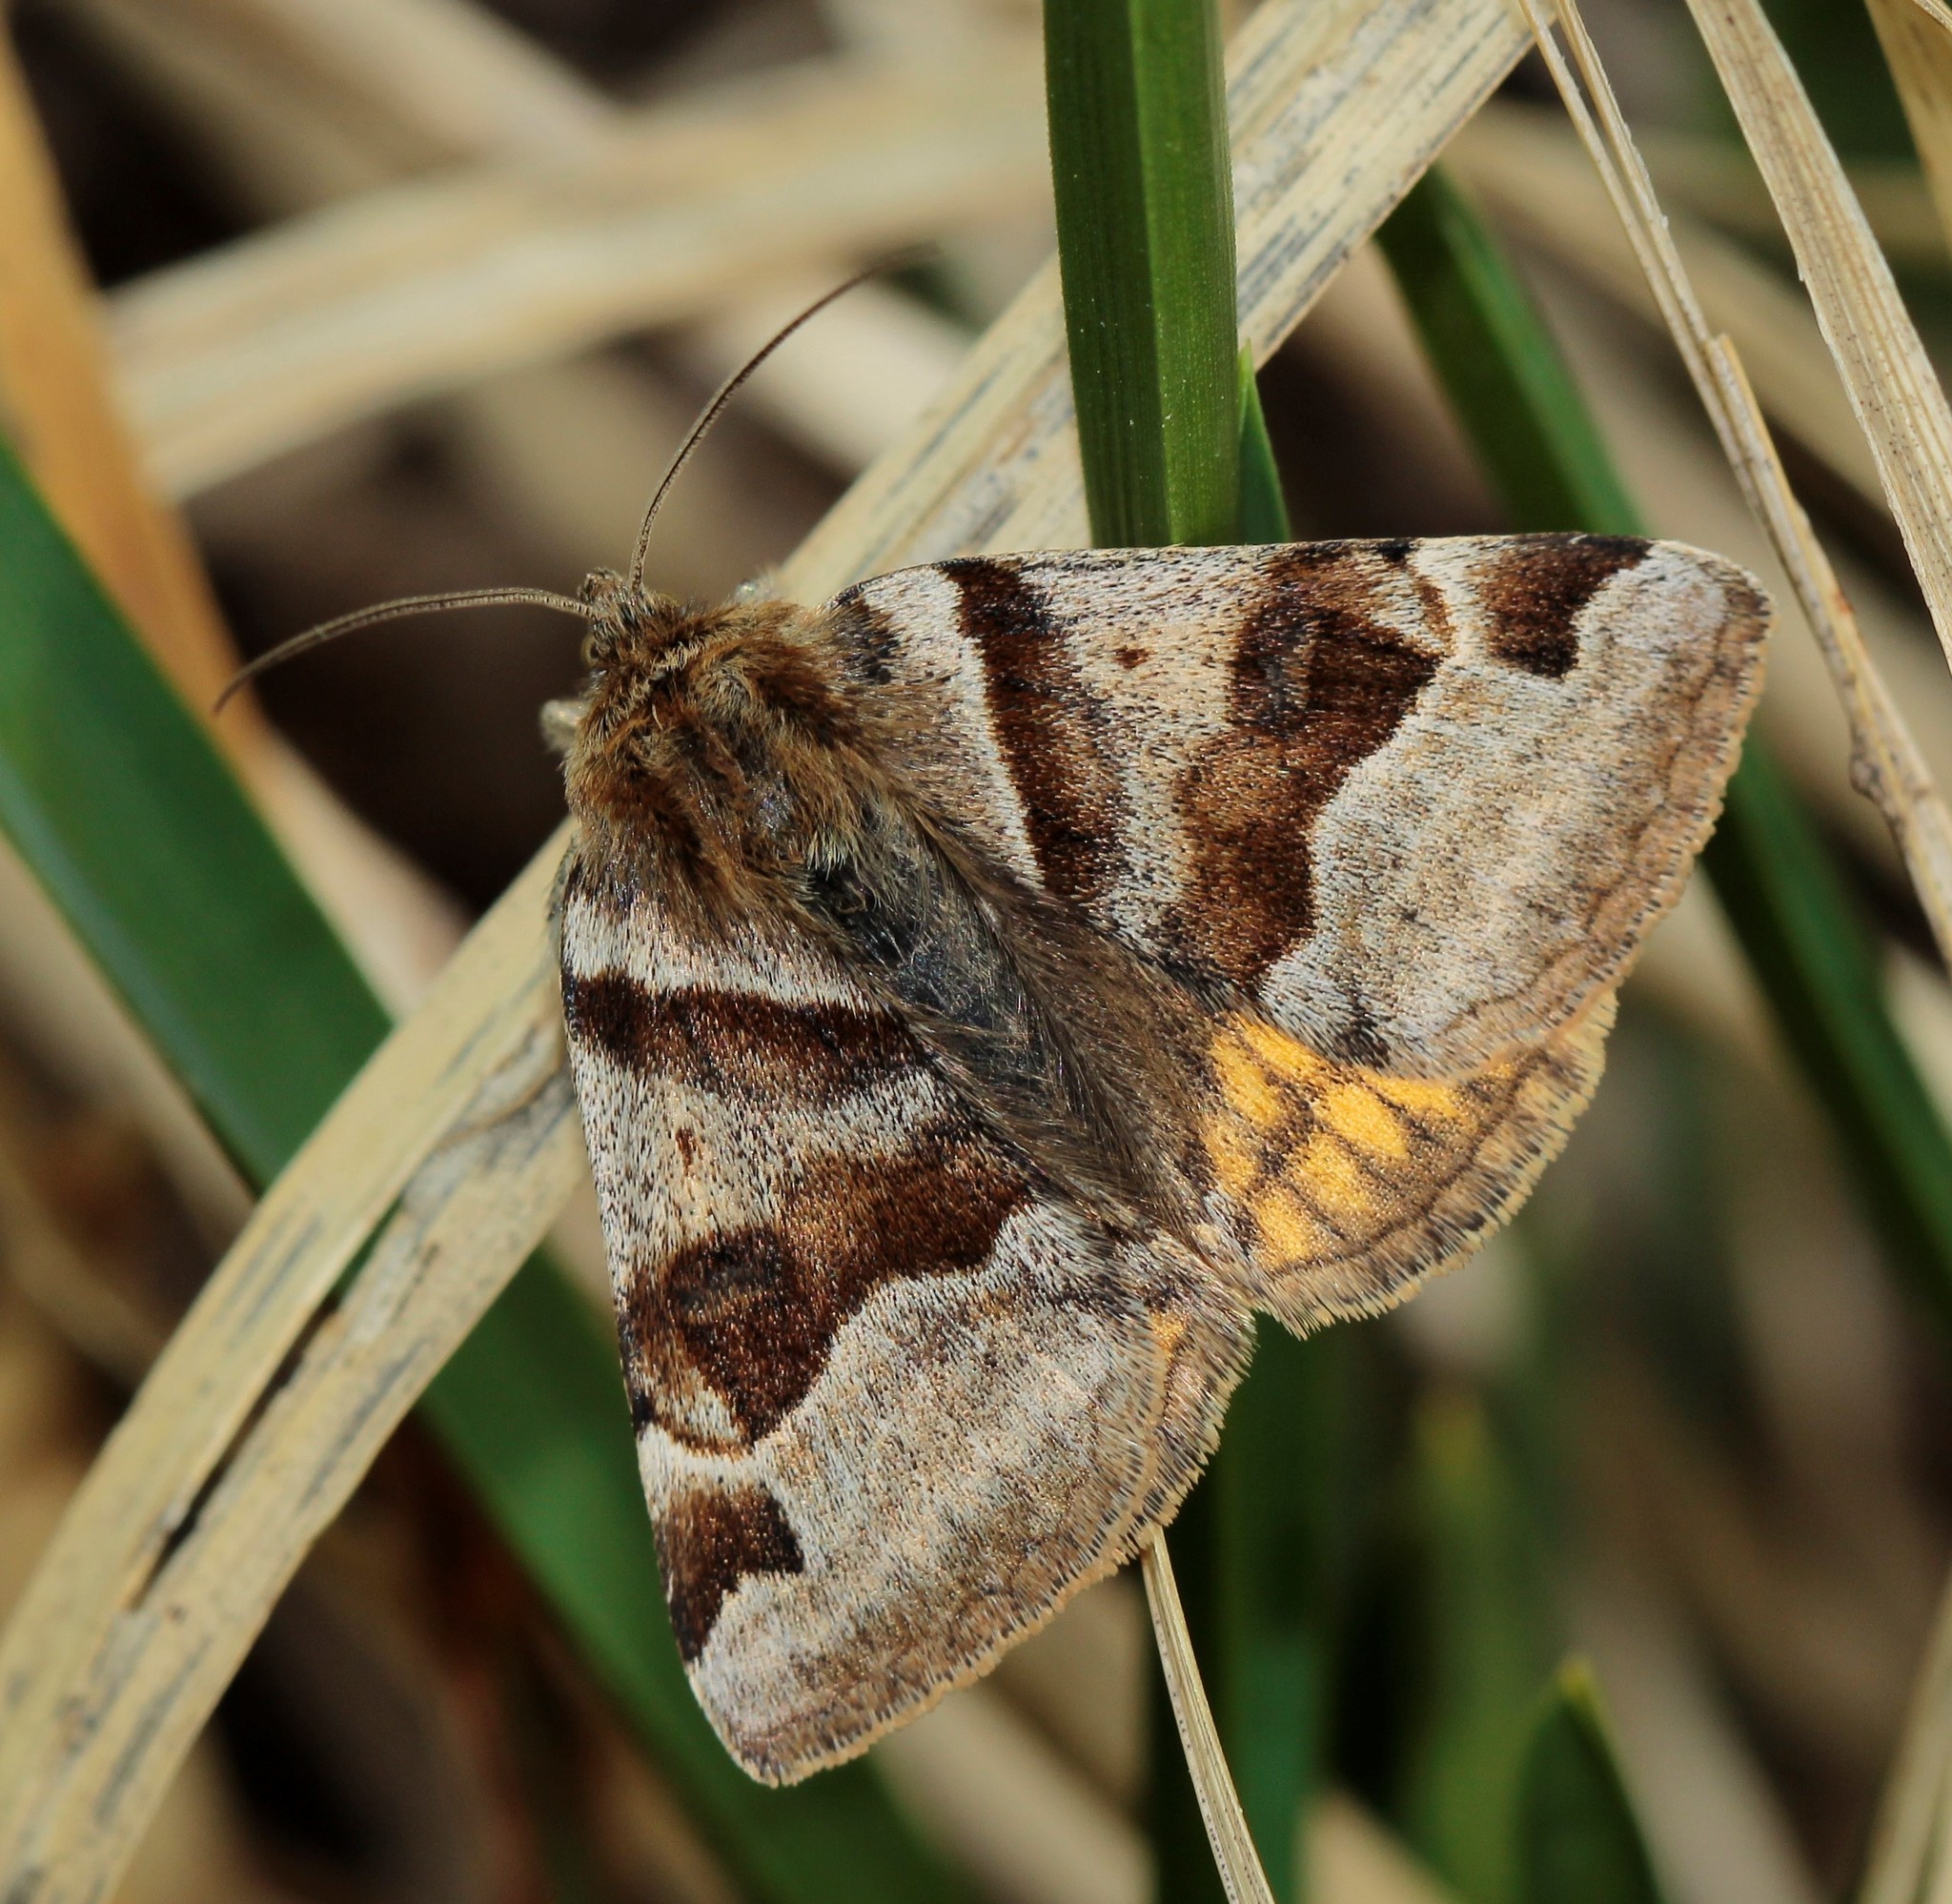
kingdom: Animalia
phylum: Arthropoda
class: Insecta
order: Lepidoptera
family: Erebidae
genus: Euclidia
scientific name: Euclidia glyphica
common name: Burnet companion
